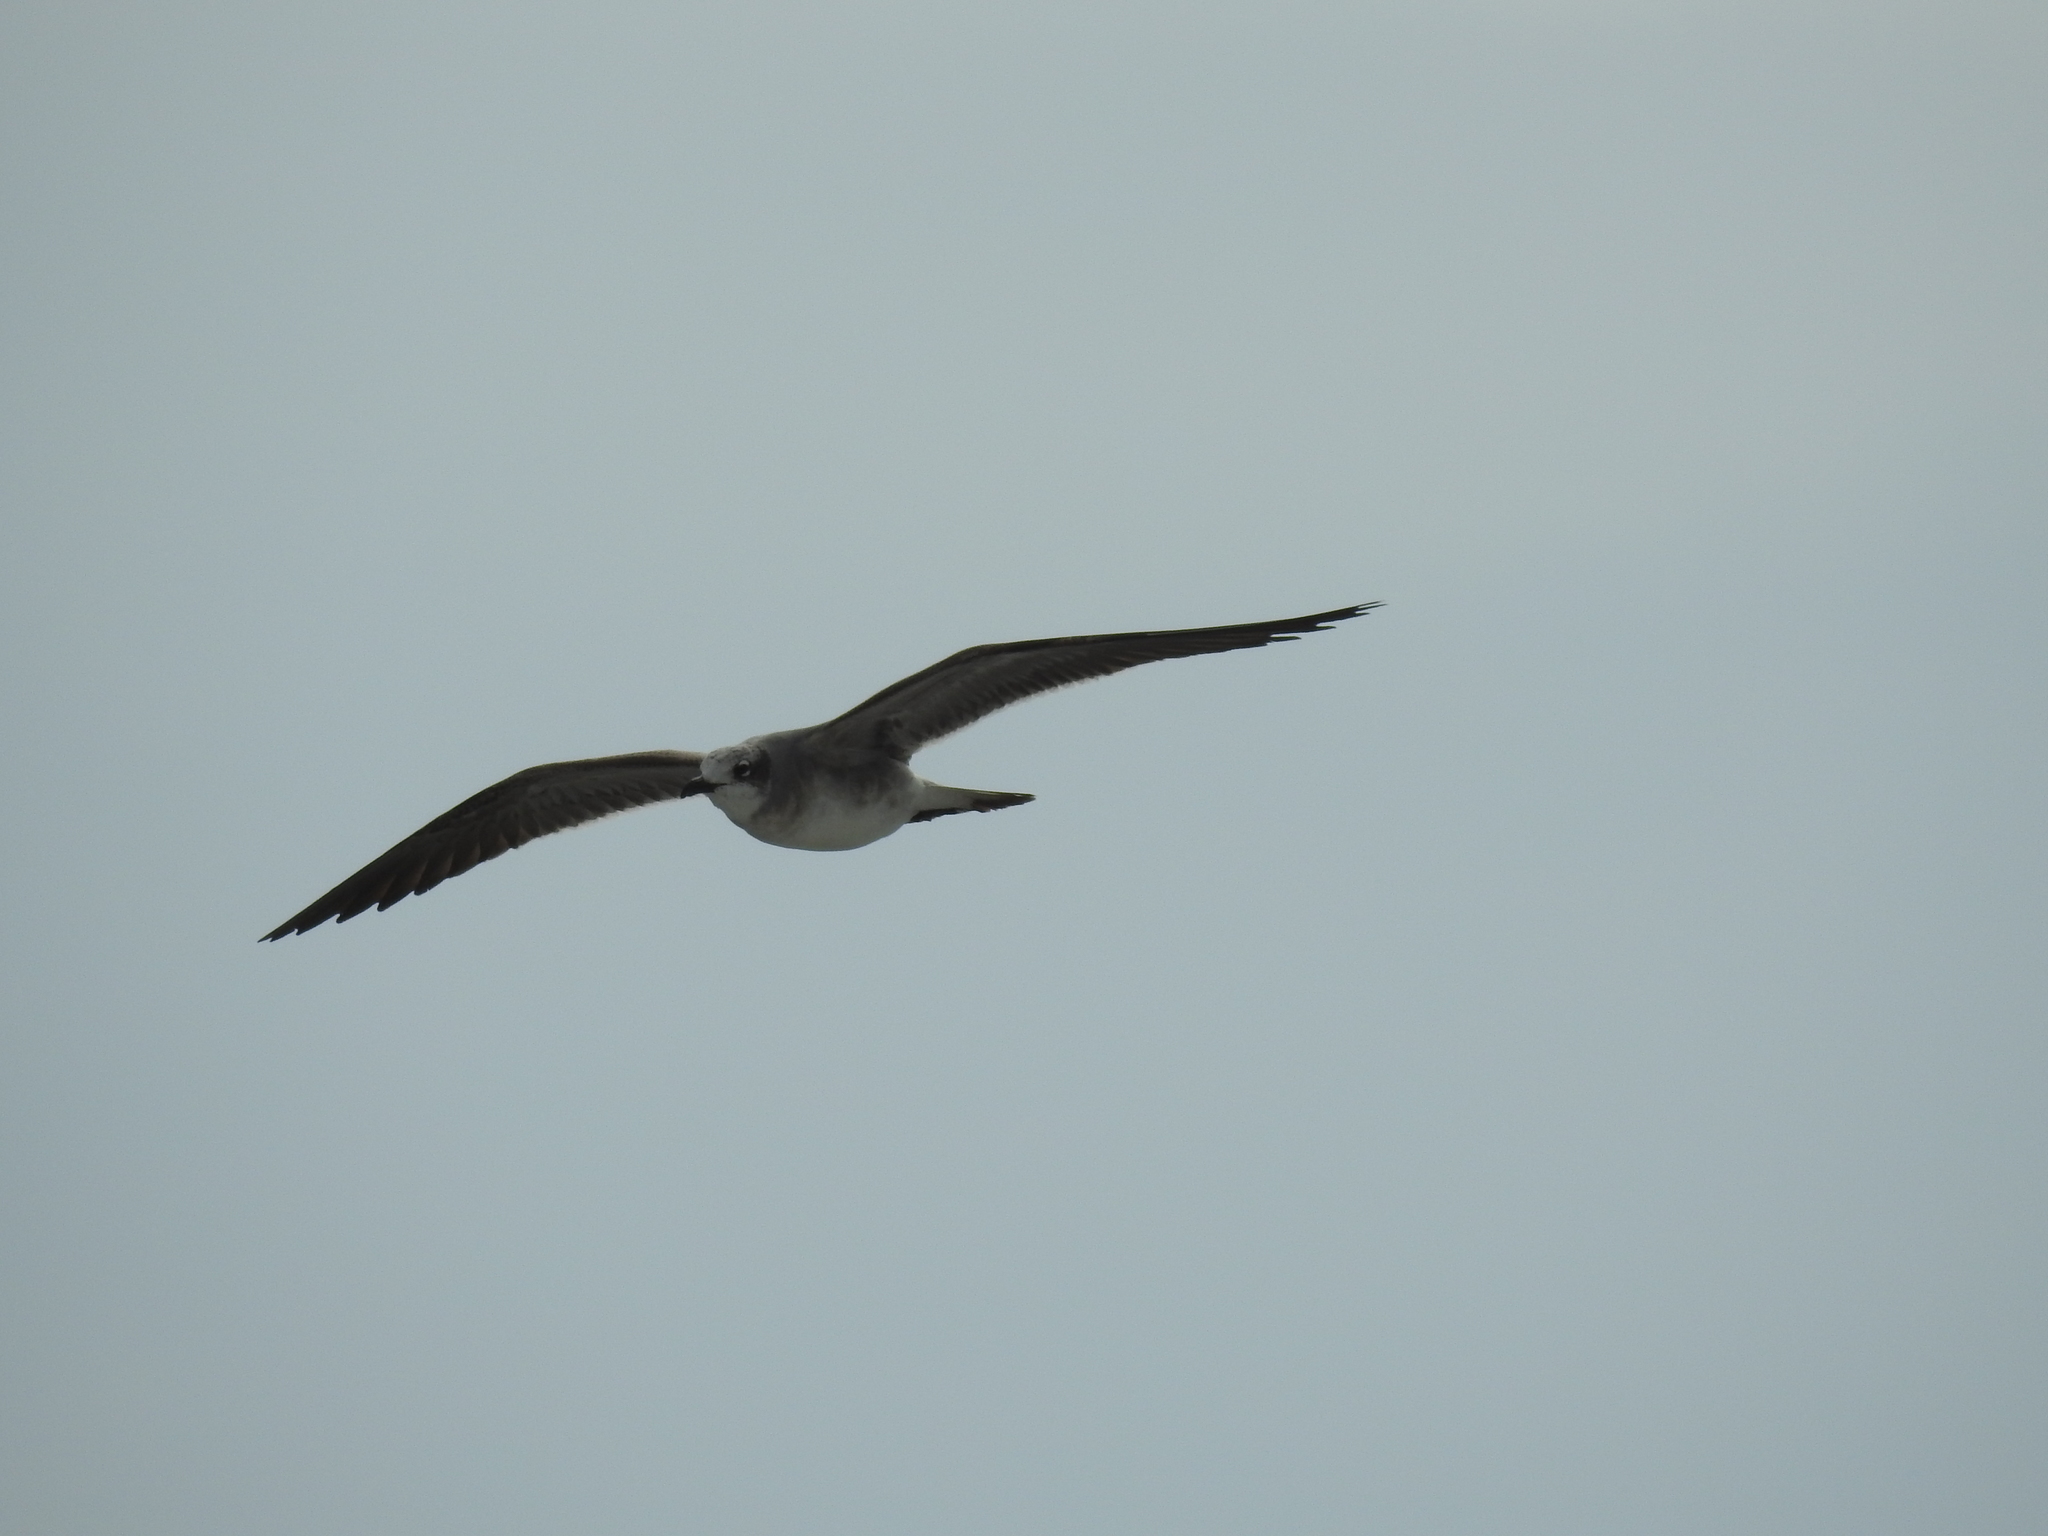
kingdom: Animalia
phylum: Chordata
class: Aves
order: Charadriiformes
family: Laridae
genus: Leucophaeus
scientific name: Leucophaeus atricilla
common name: Laughing gull
